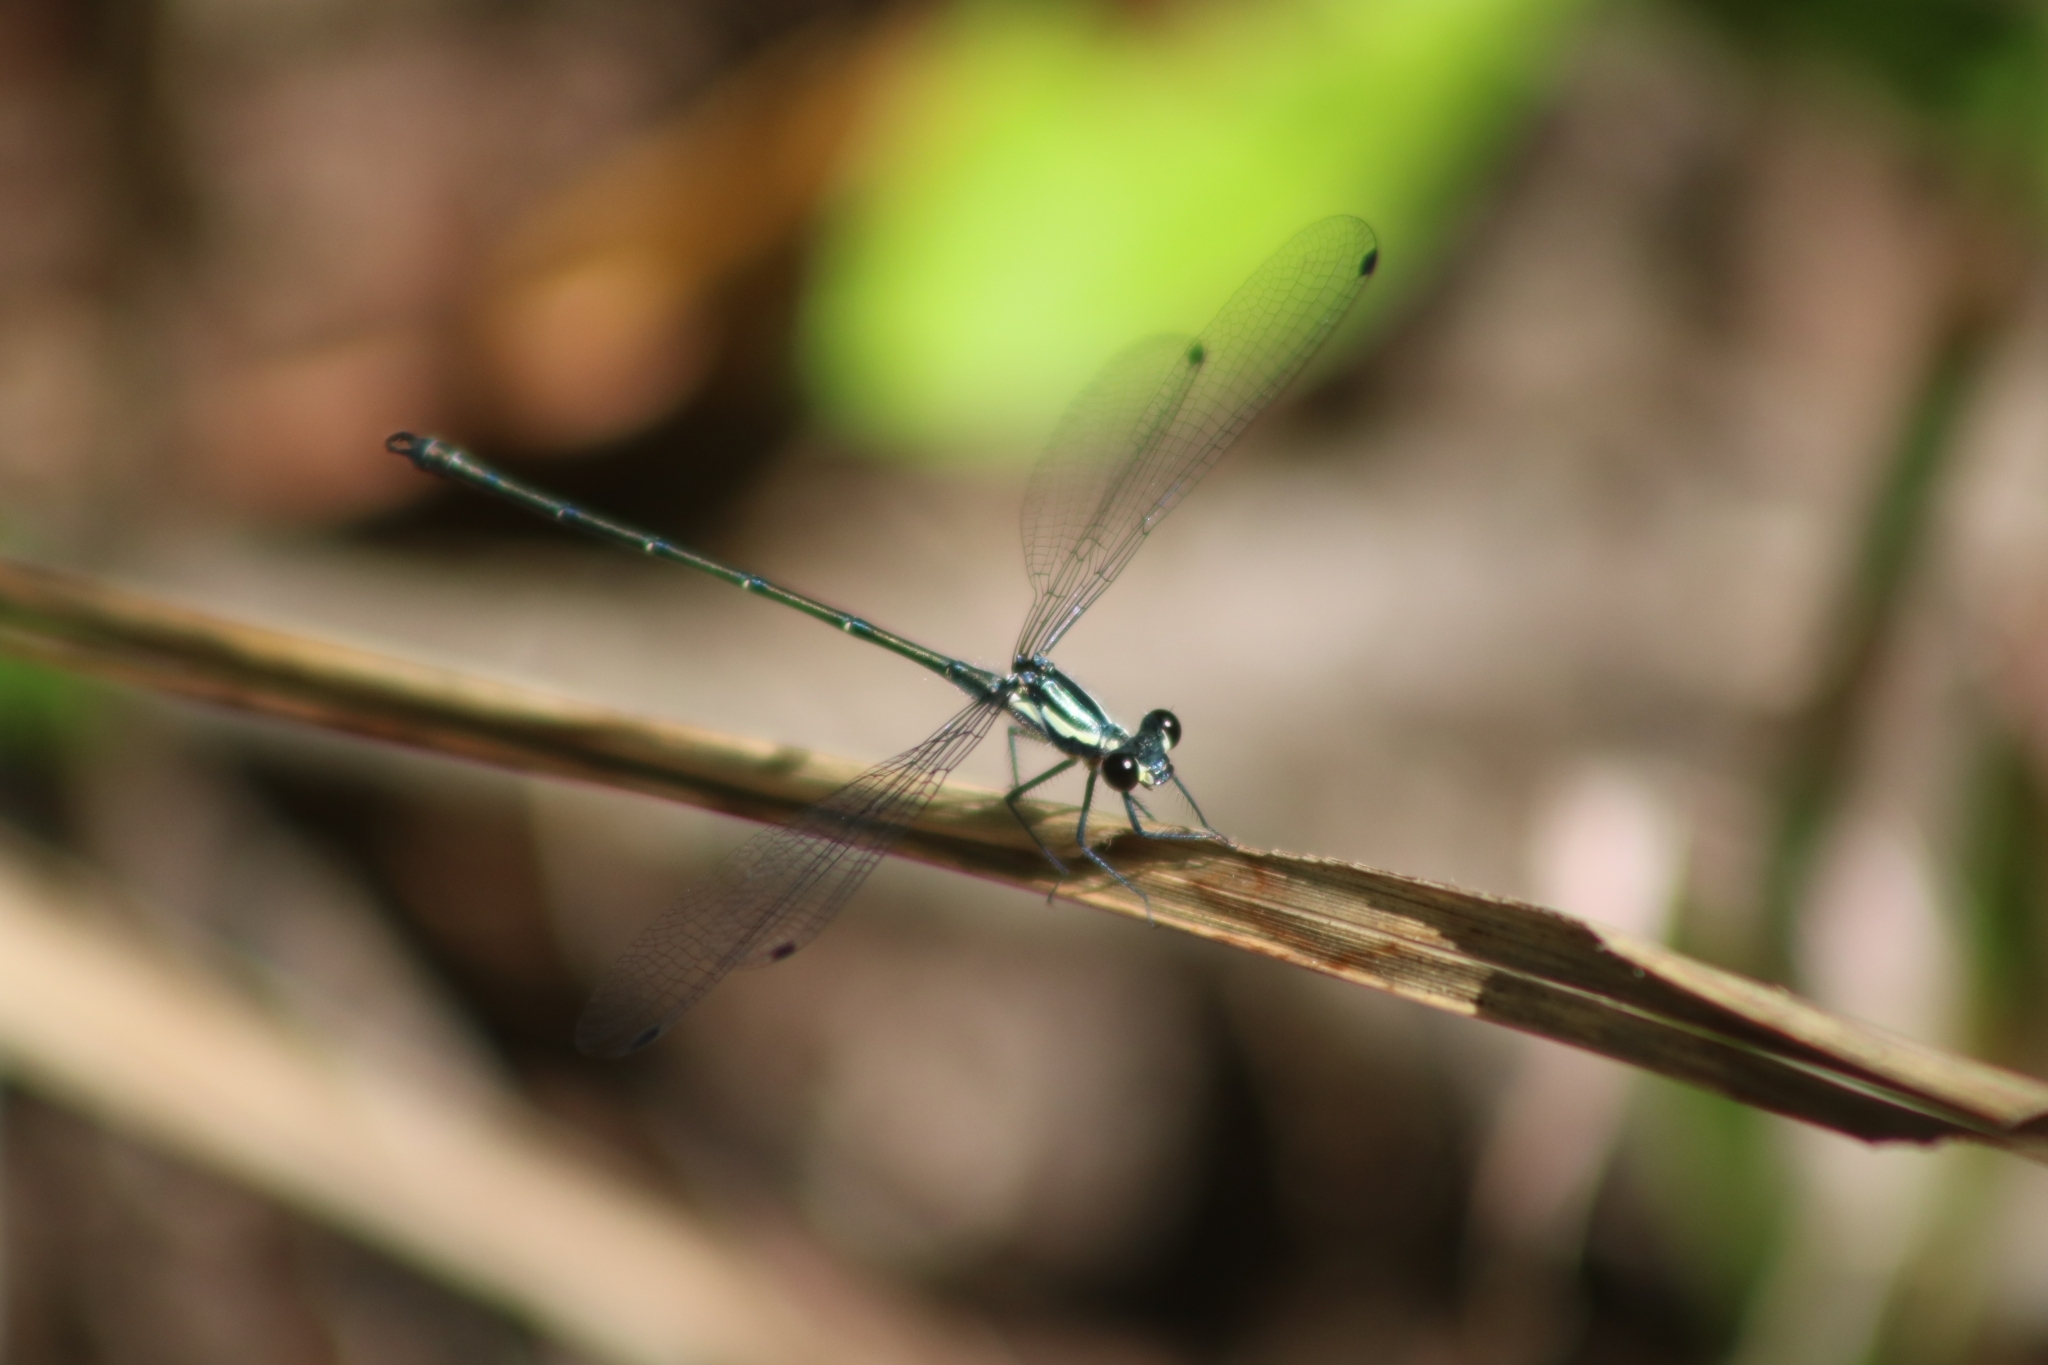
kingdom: Animalia
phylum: Arthropoda
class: Insecta
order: Odonata
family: Argiolestidae
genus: Austroargiolestes
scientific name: Austroargiolestes icteromelas
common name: Common flatwing
